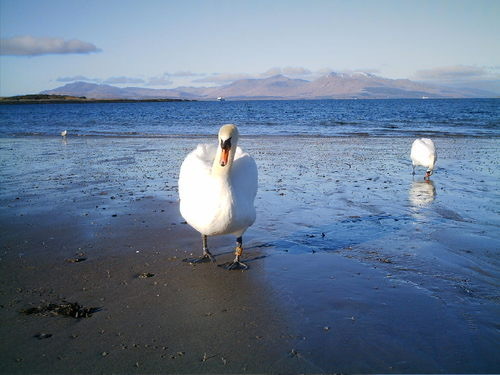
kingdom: Animalia
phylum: Chordata
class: Aves
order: Anseriformes
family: Anatidae
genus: Cygnus
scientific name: Cygnus olor
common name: Mute swan
